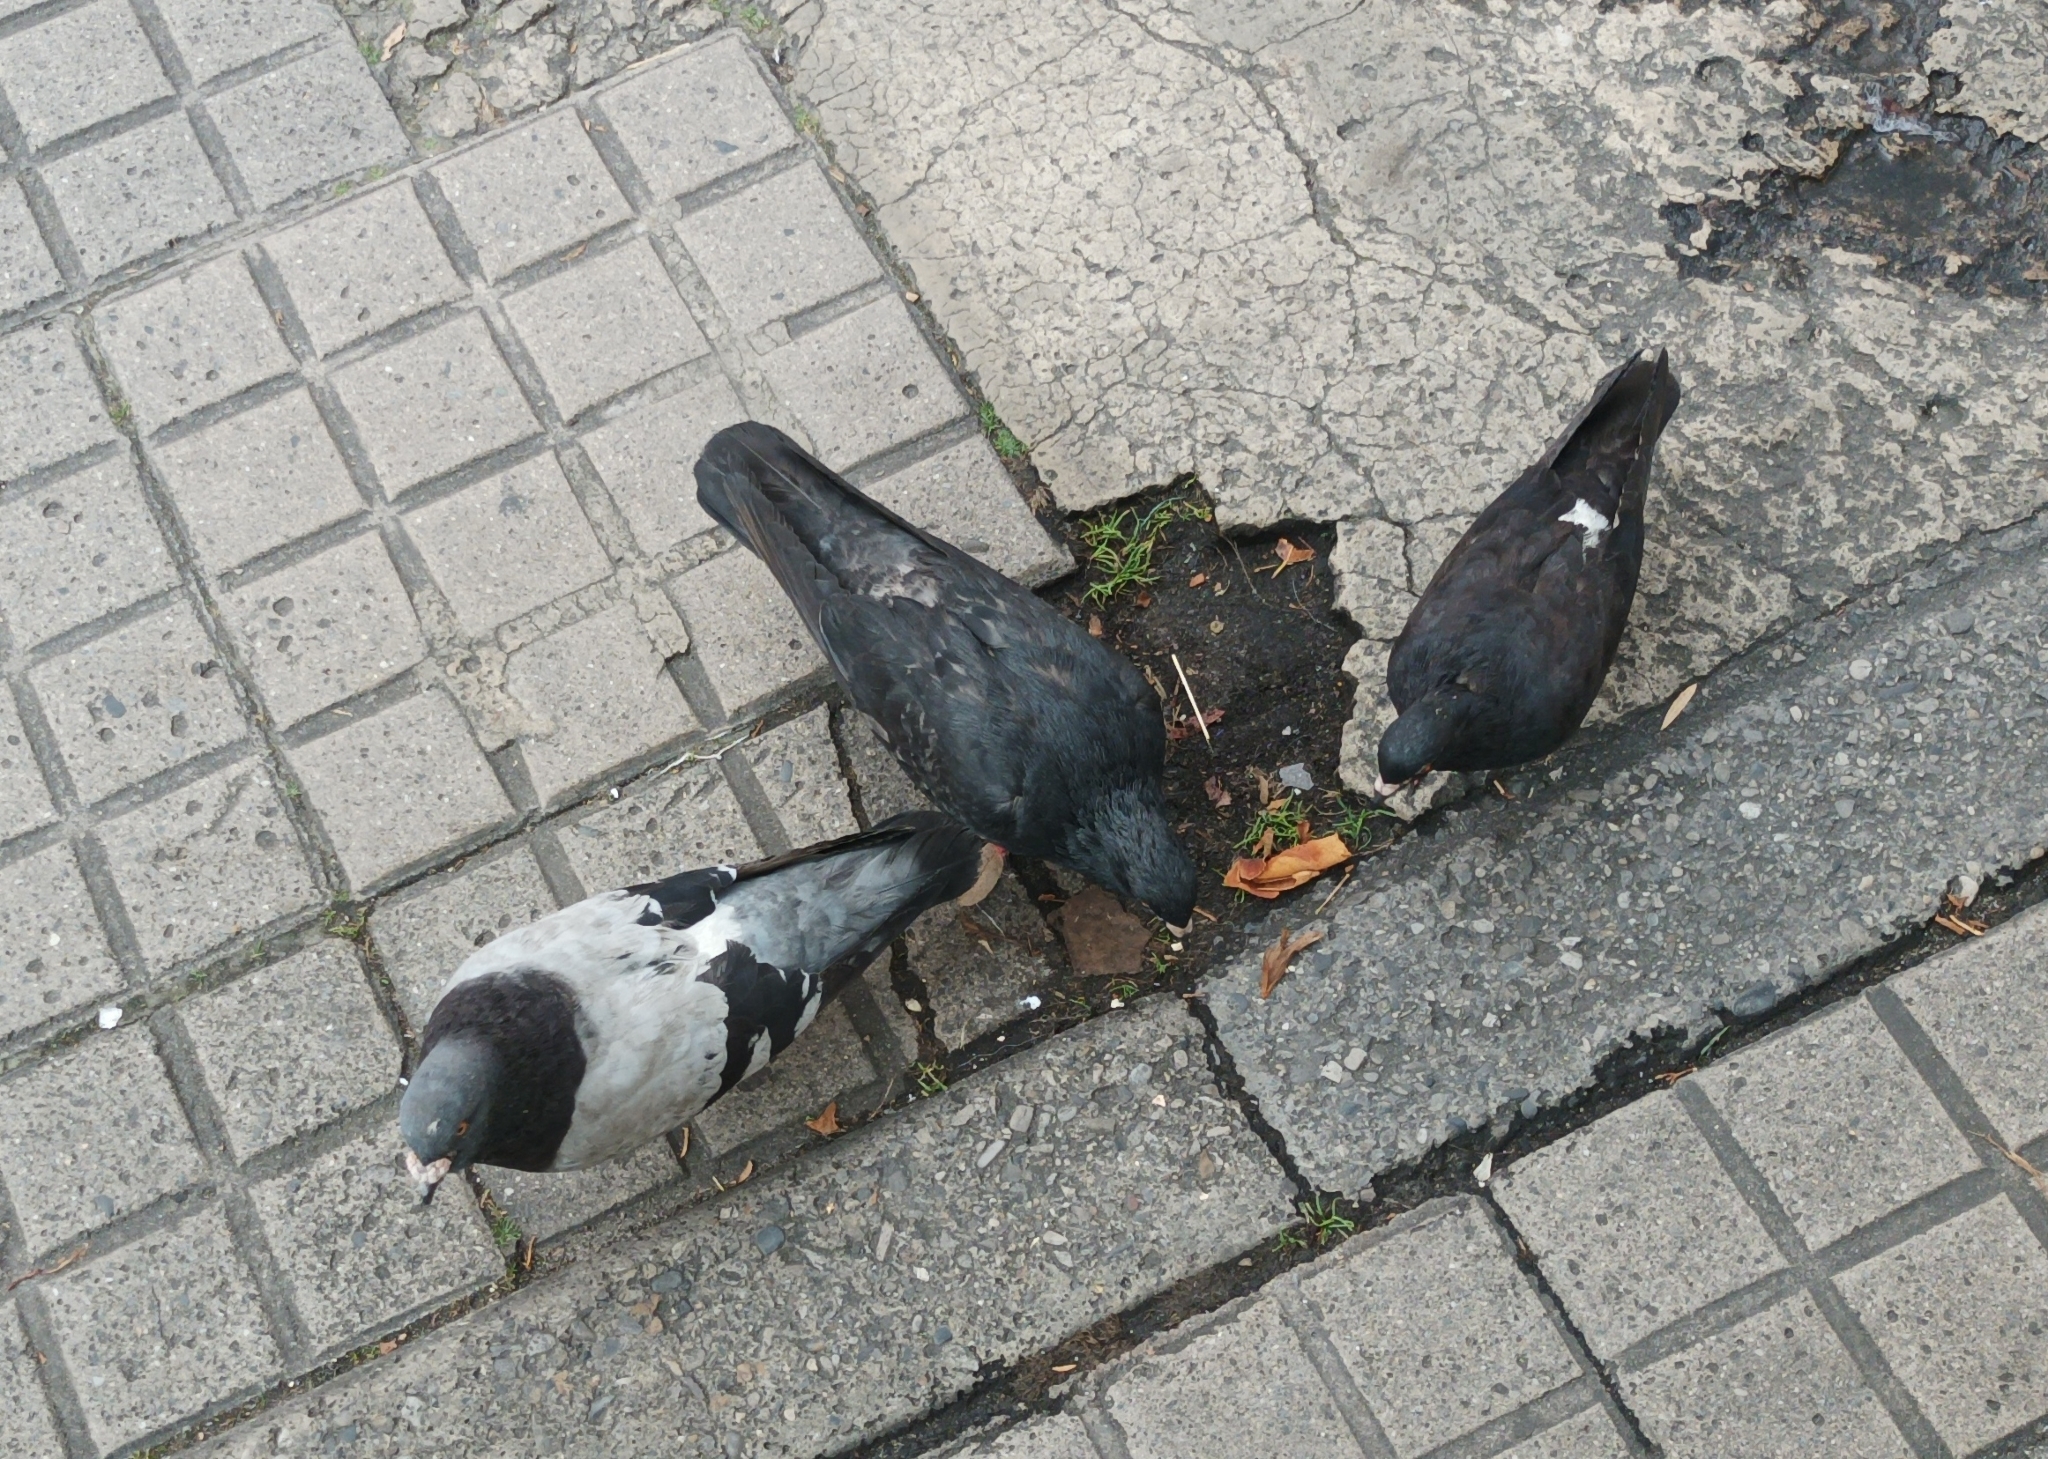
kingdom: Animalia
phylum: Chordata
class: Aves
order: Columbiformes
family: Columbidae
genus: Columba
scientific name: Columba livia
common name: Rock pigeon
